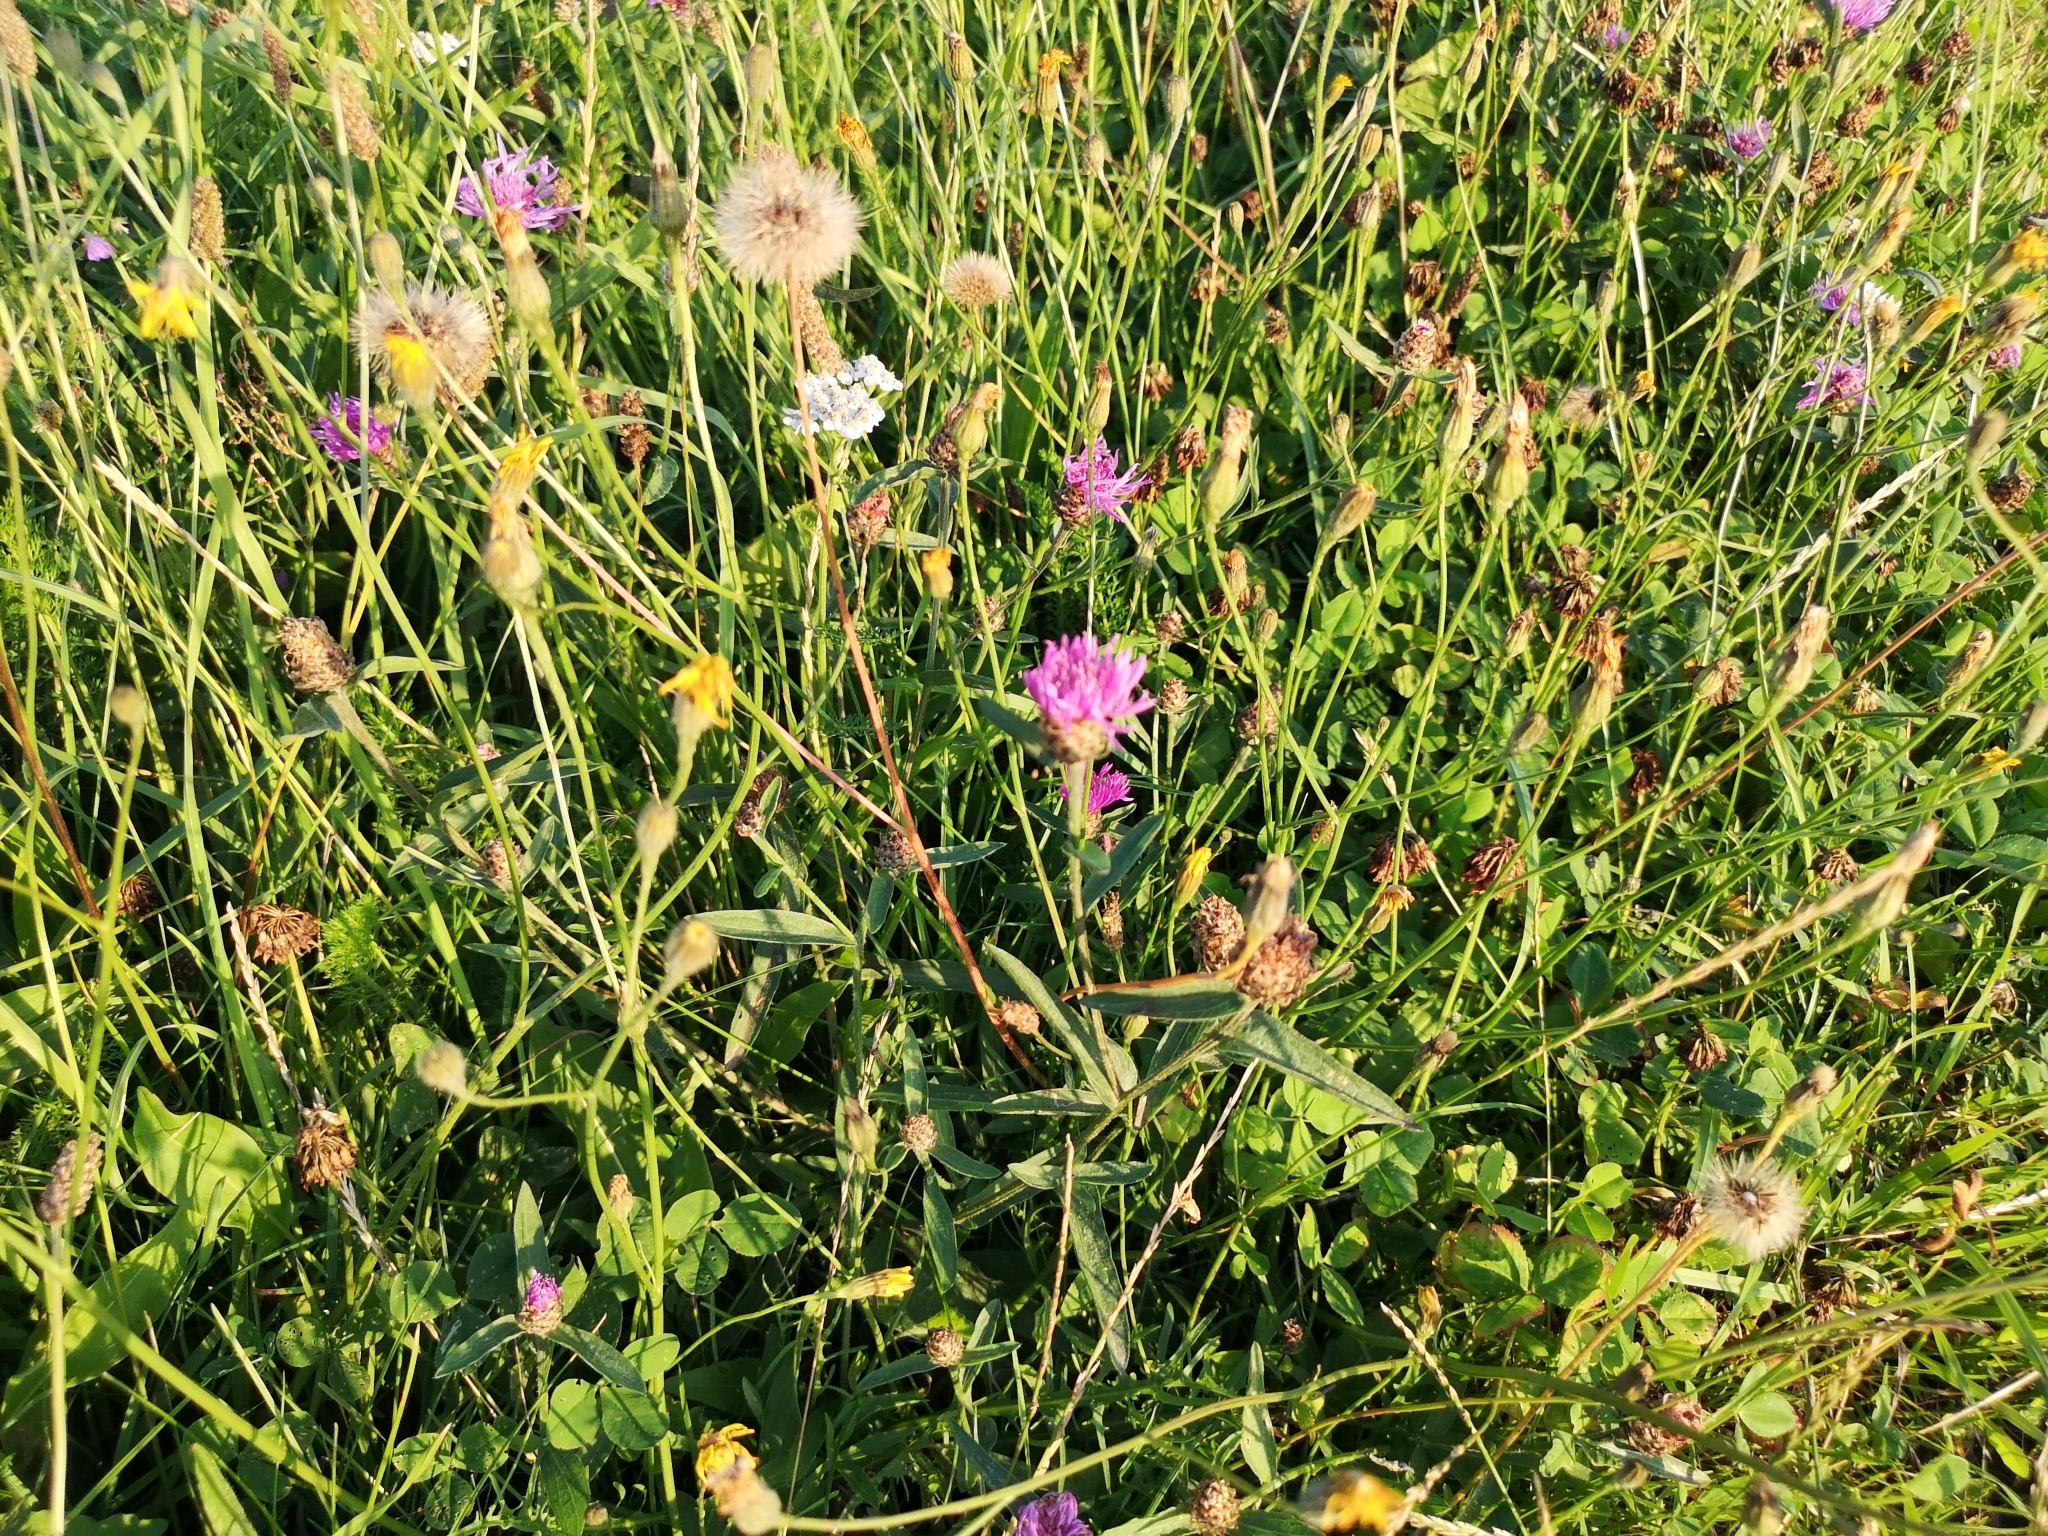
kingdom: Plantae
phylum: Tracheophyta
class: Magnoliopsida
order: Asterales
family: Asteraceae
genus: Centaurea
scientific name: Centaurea jacea
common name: Brown knapweed
